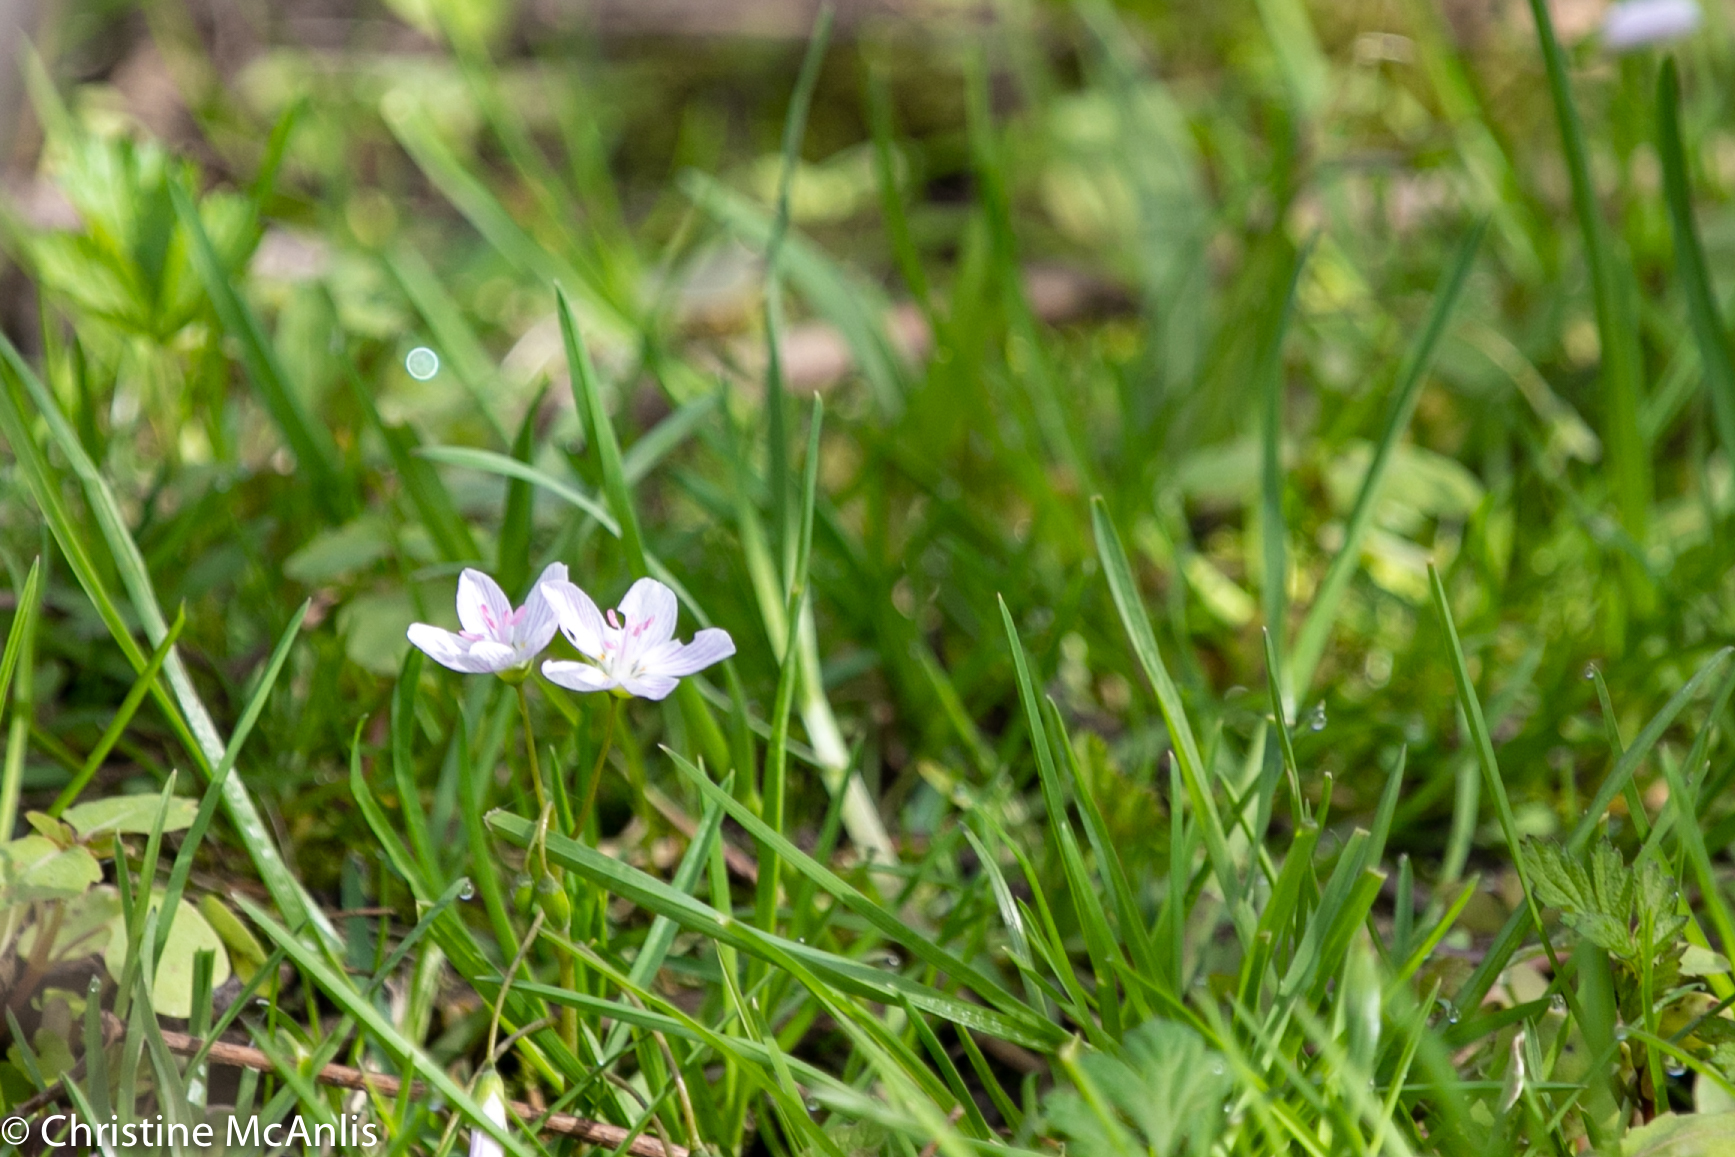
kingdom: Plantae
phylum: Tracheophyta
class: Magnoliopsida
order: Caryophyllales
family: Montiaceae
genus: Claytonia
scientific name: Claytonia virginica
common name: Virginia springbeauty
